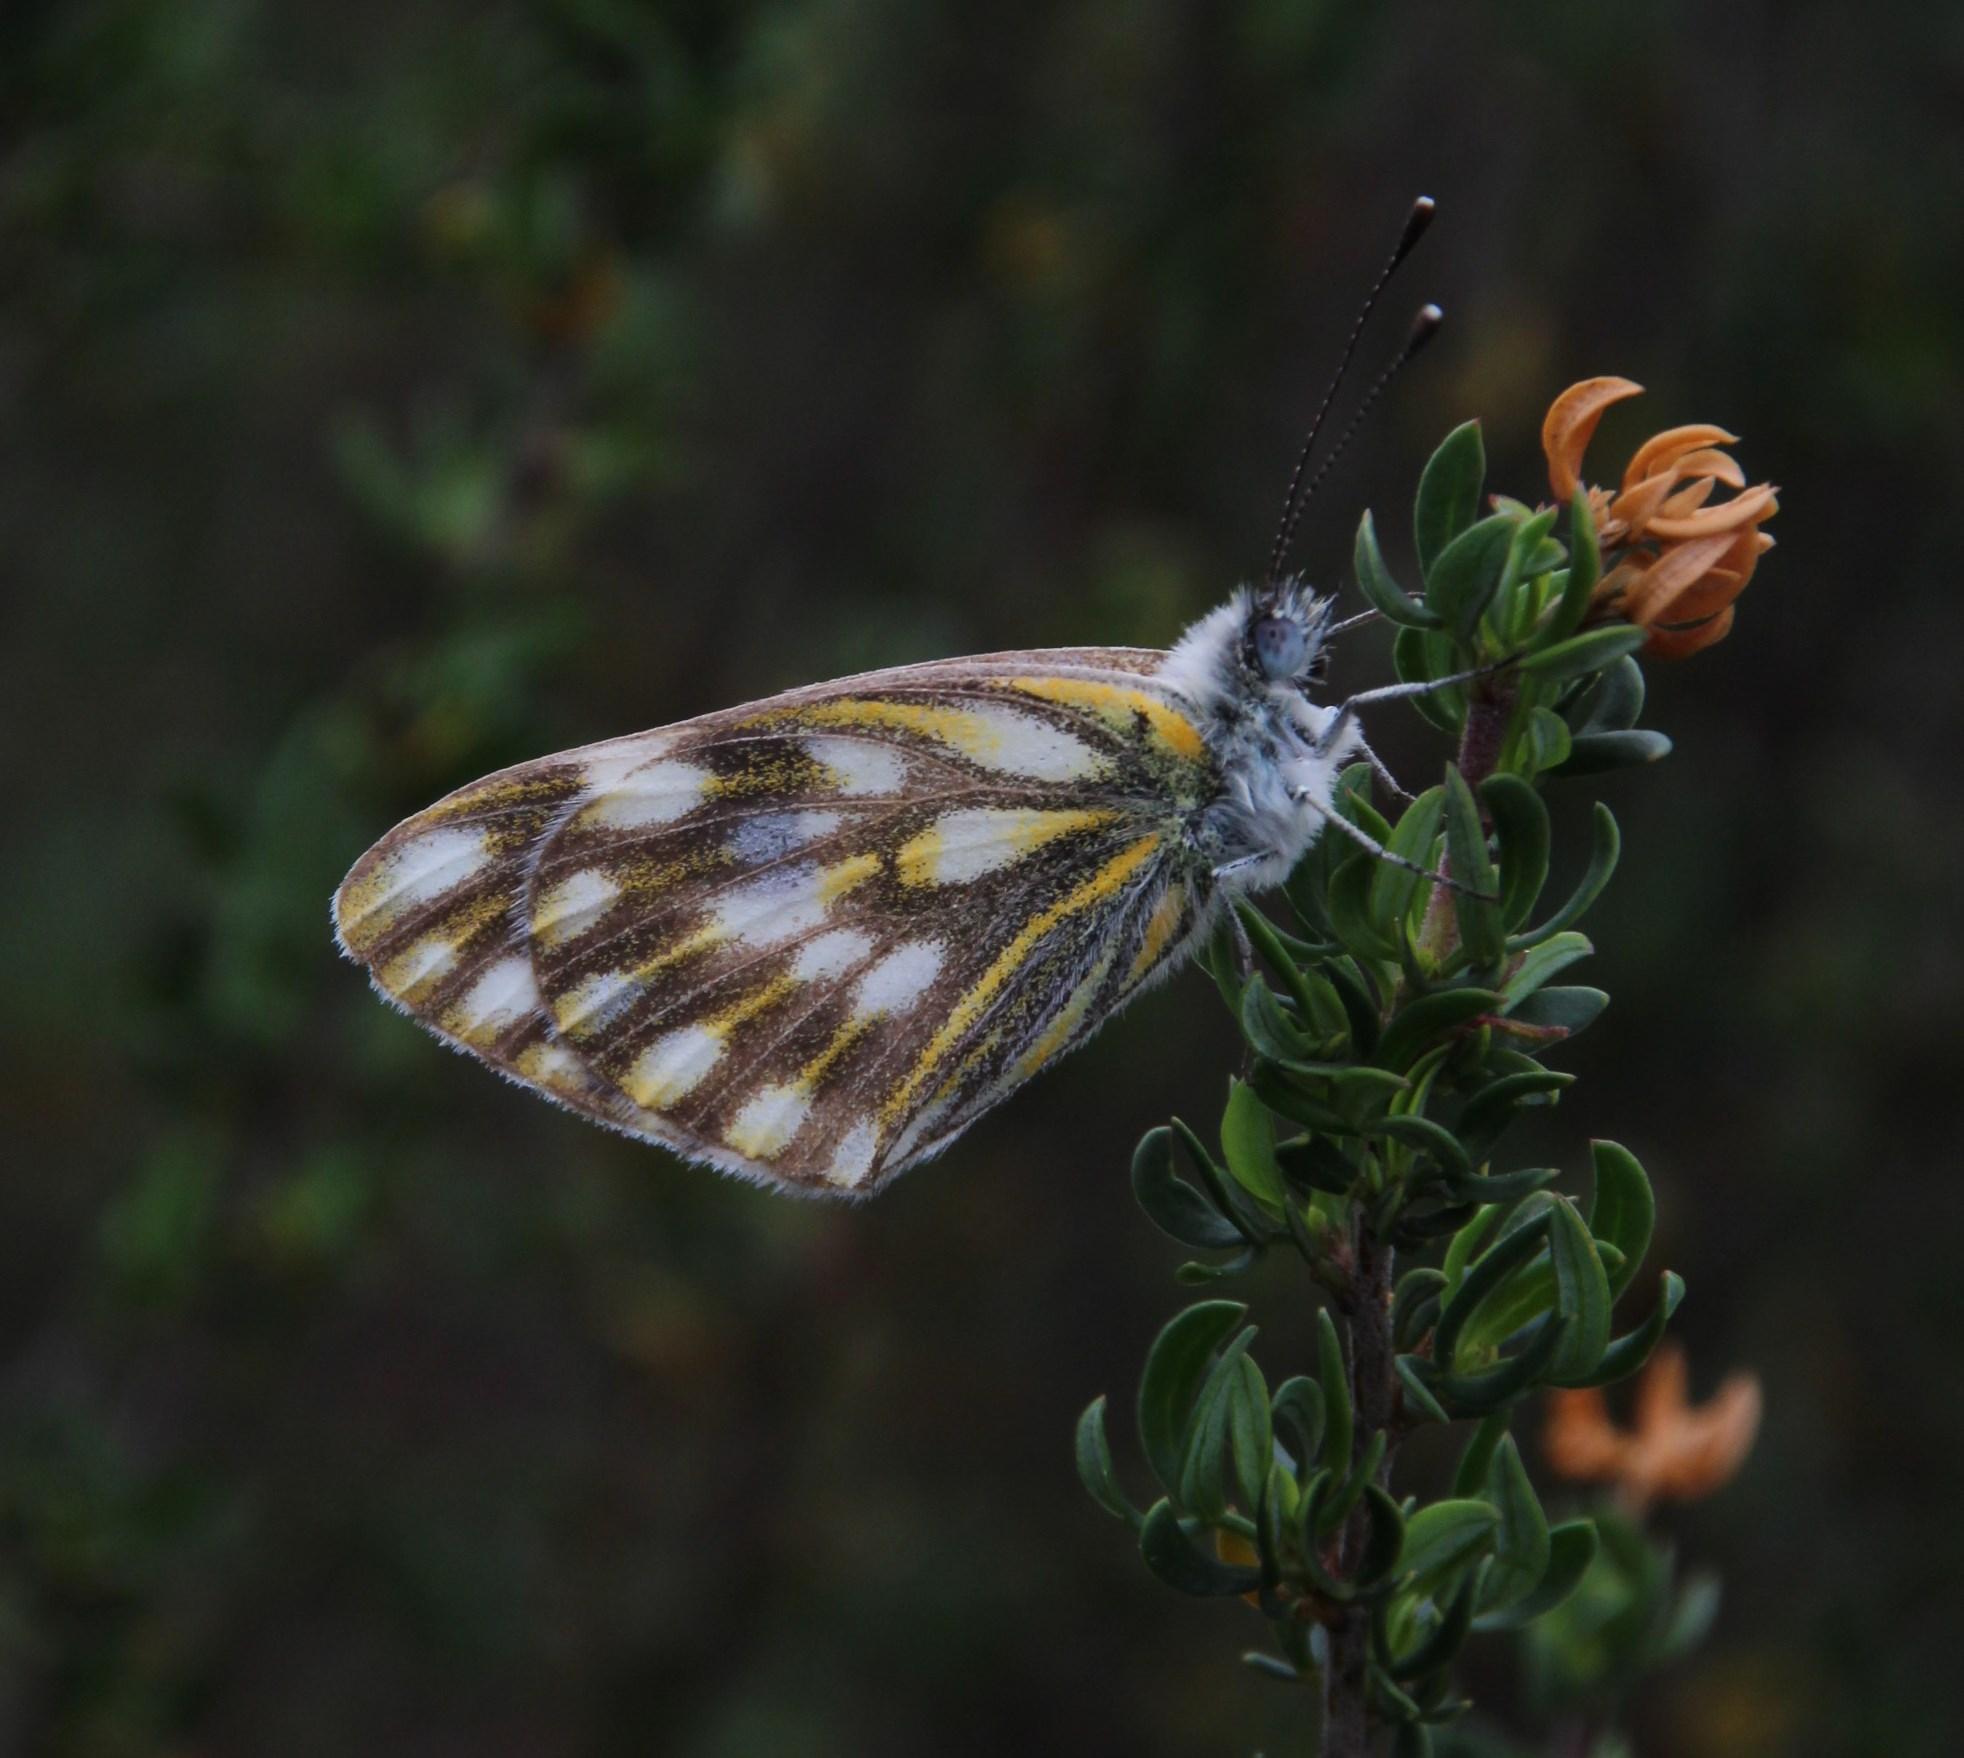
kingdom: Animalia
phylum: Arthropoda
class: Insecta
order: Lepidoptera
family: Pieridae
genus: Pontia
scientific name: Pontia helice
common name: Meadow white
